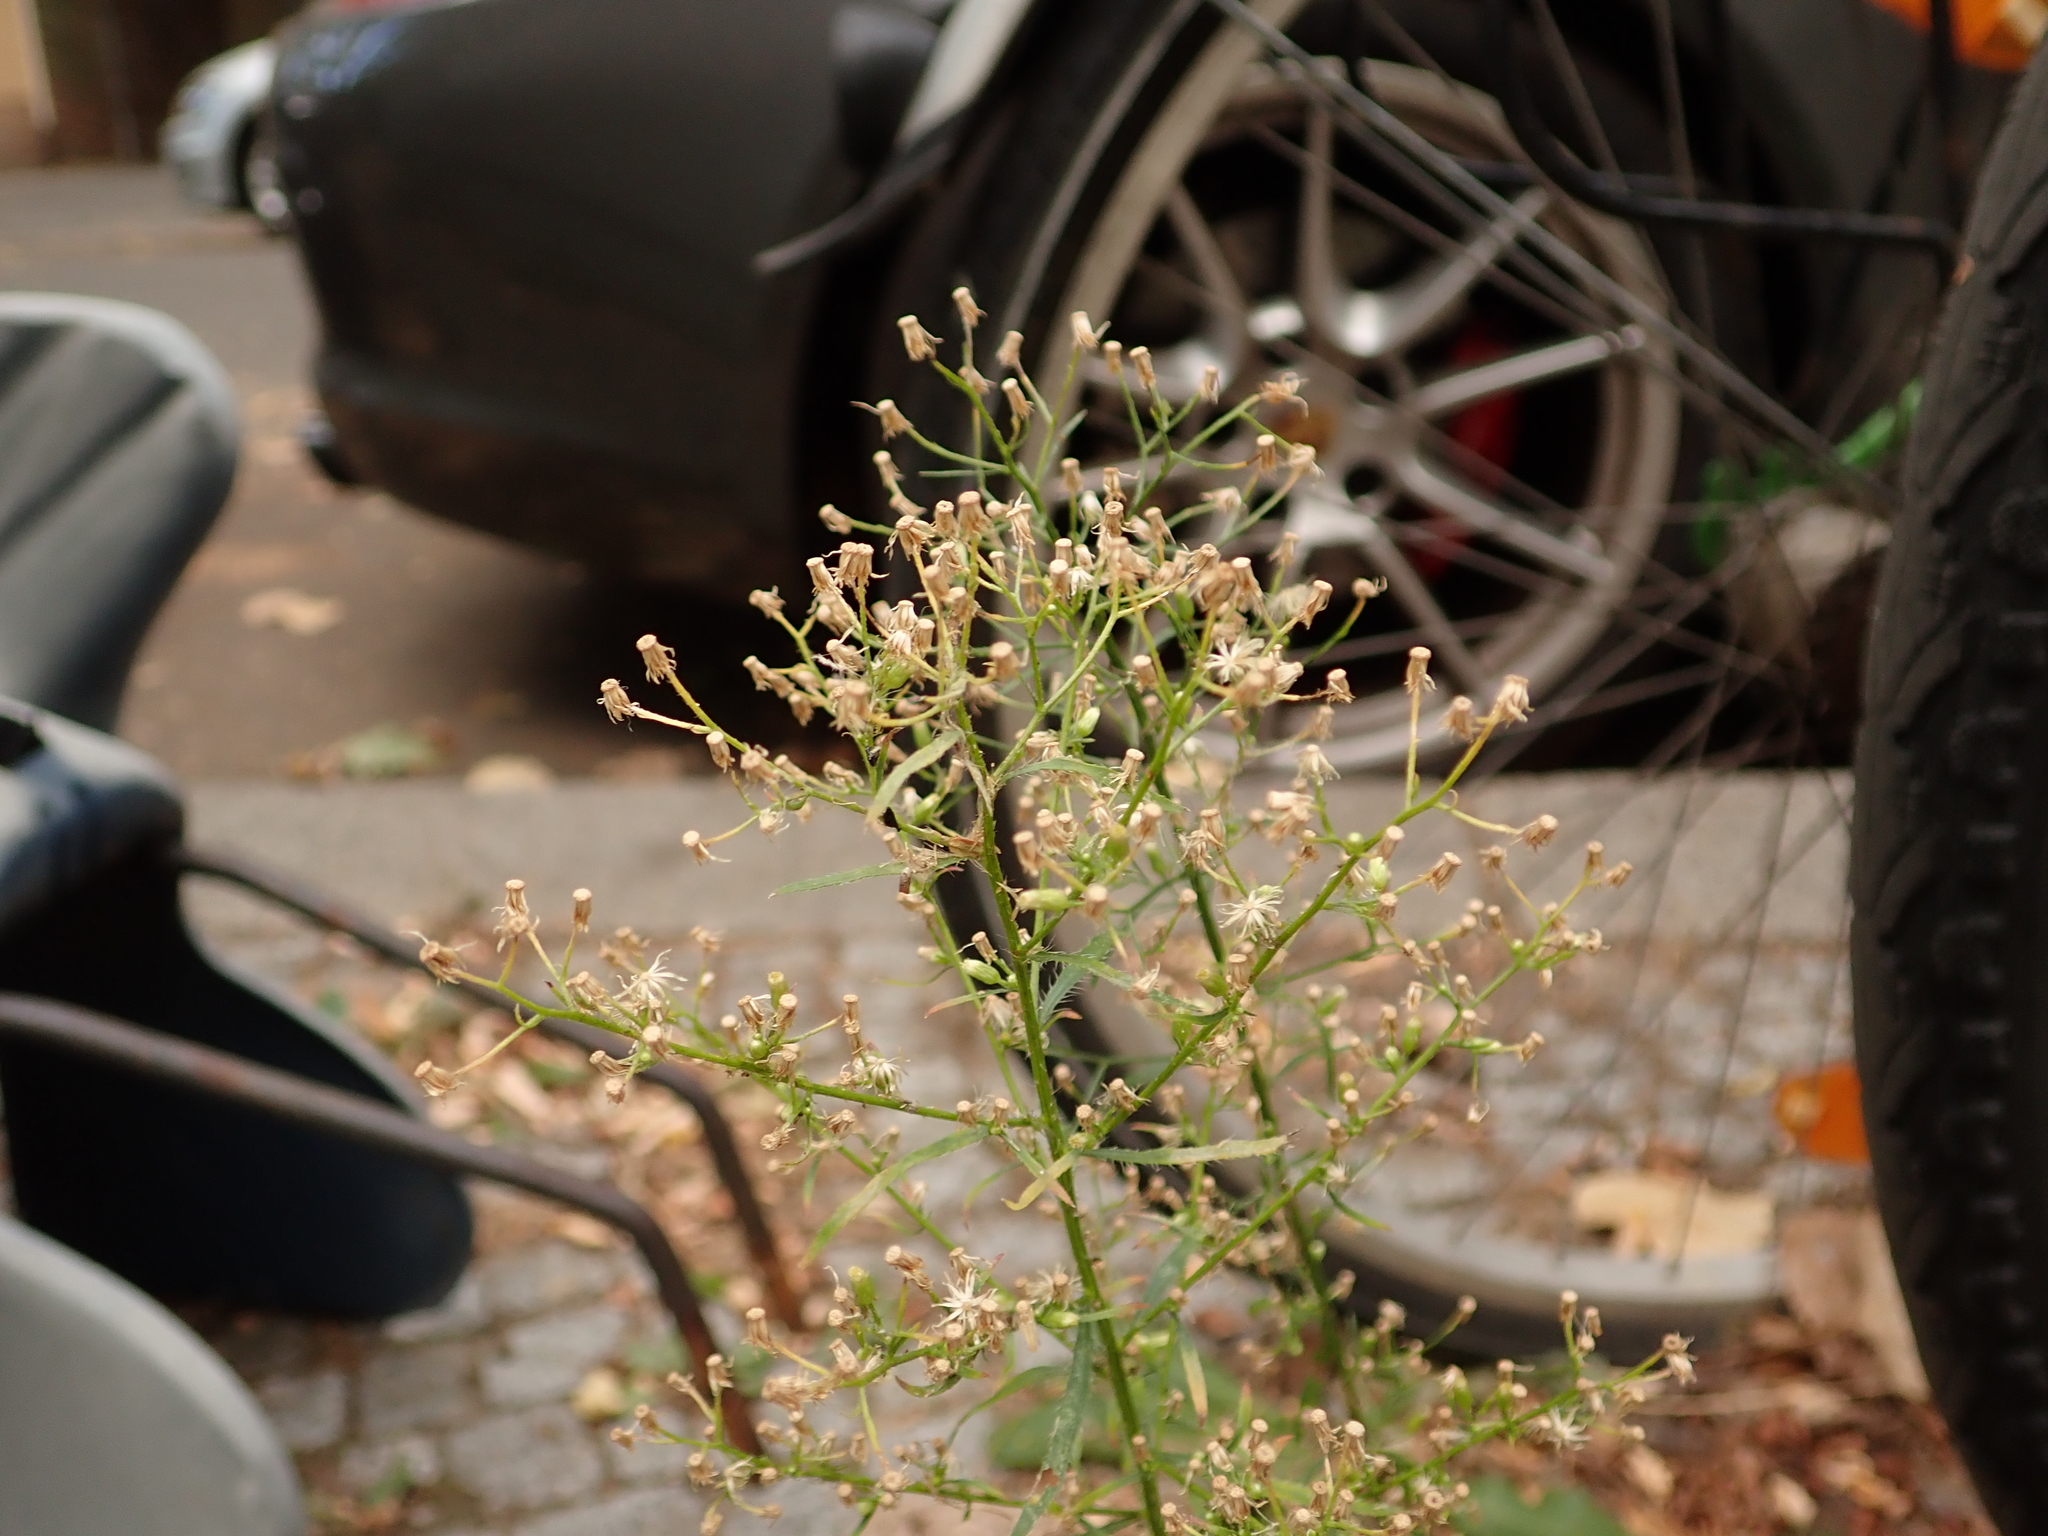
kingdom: Plantae
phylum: Tracheophyta
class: Magnoliopsida
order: Asterales
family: Asteraceae
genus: Erigeron
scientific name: Erigeron canadensis
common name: Canadian fleabane
